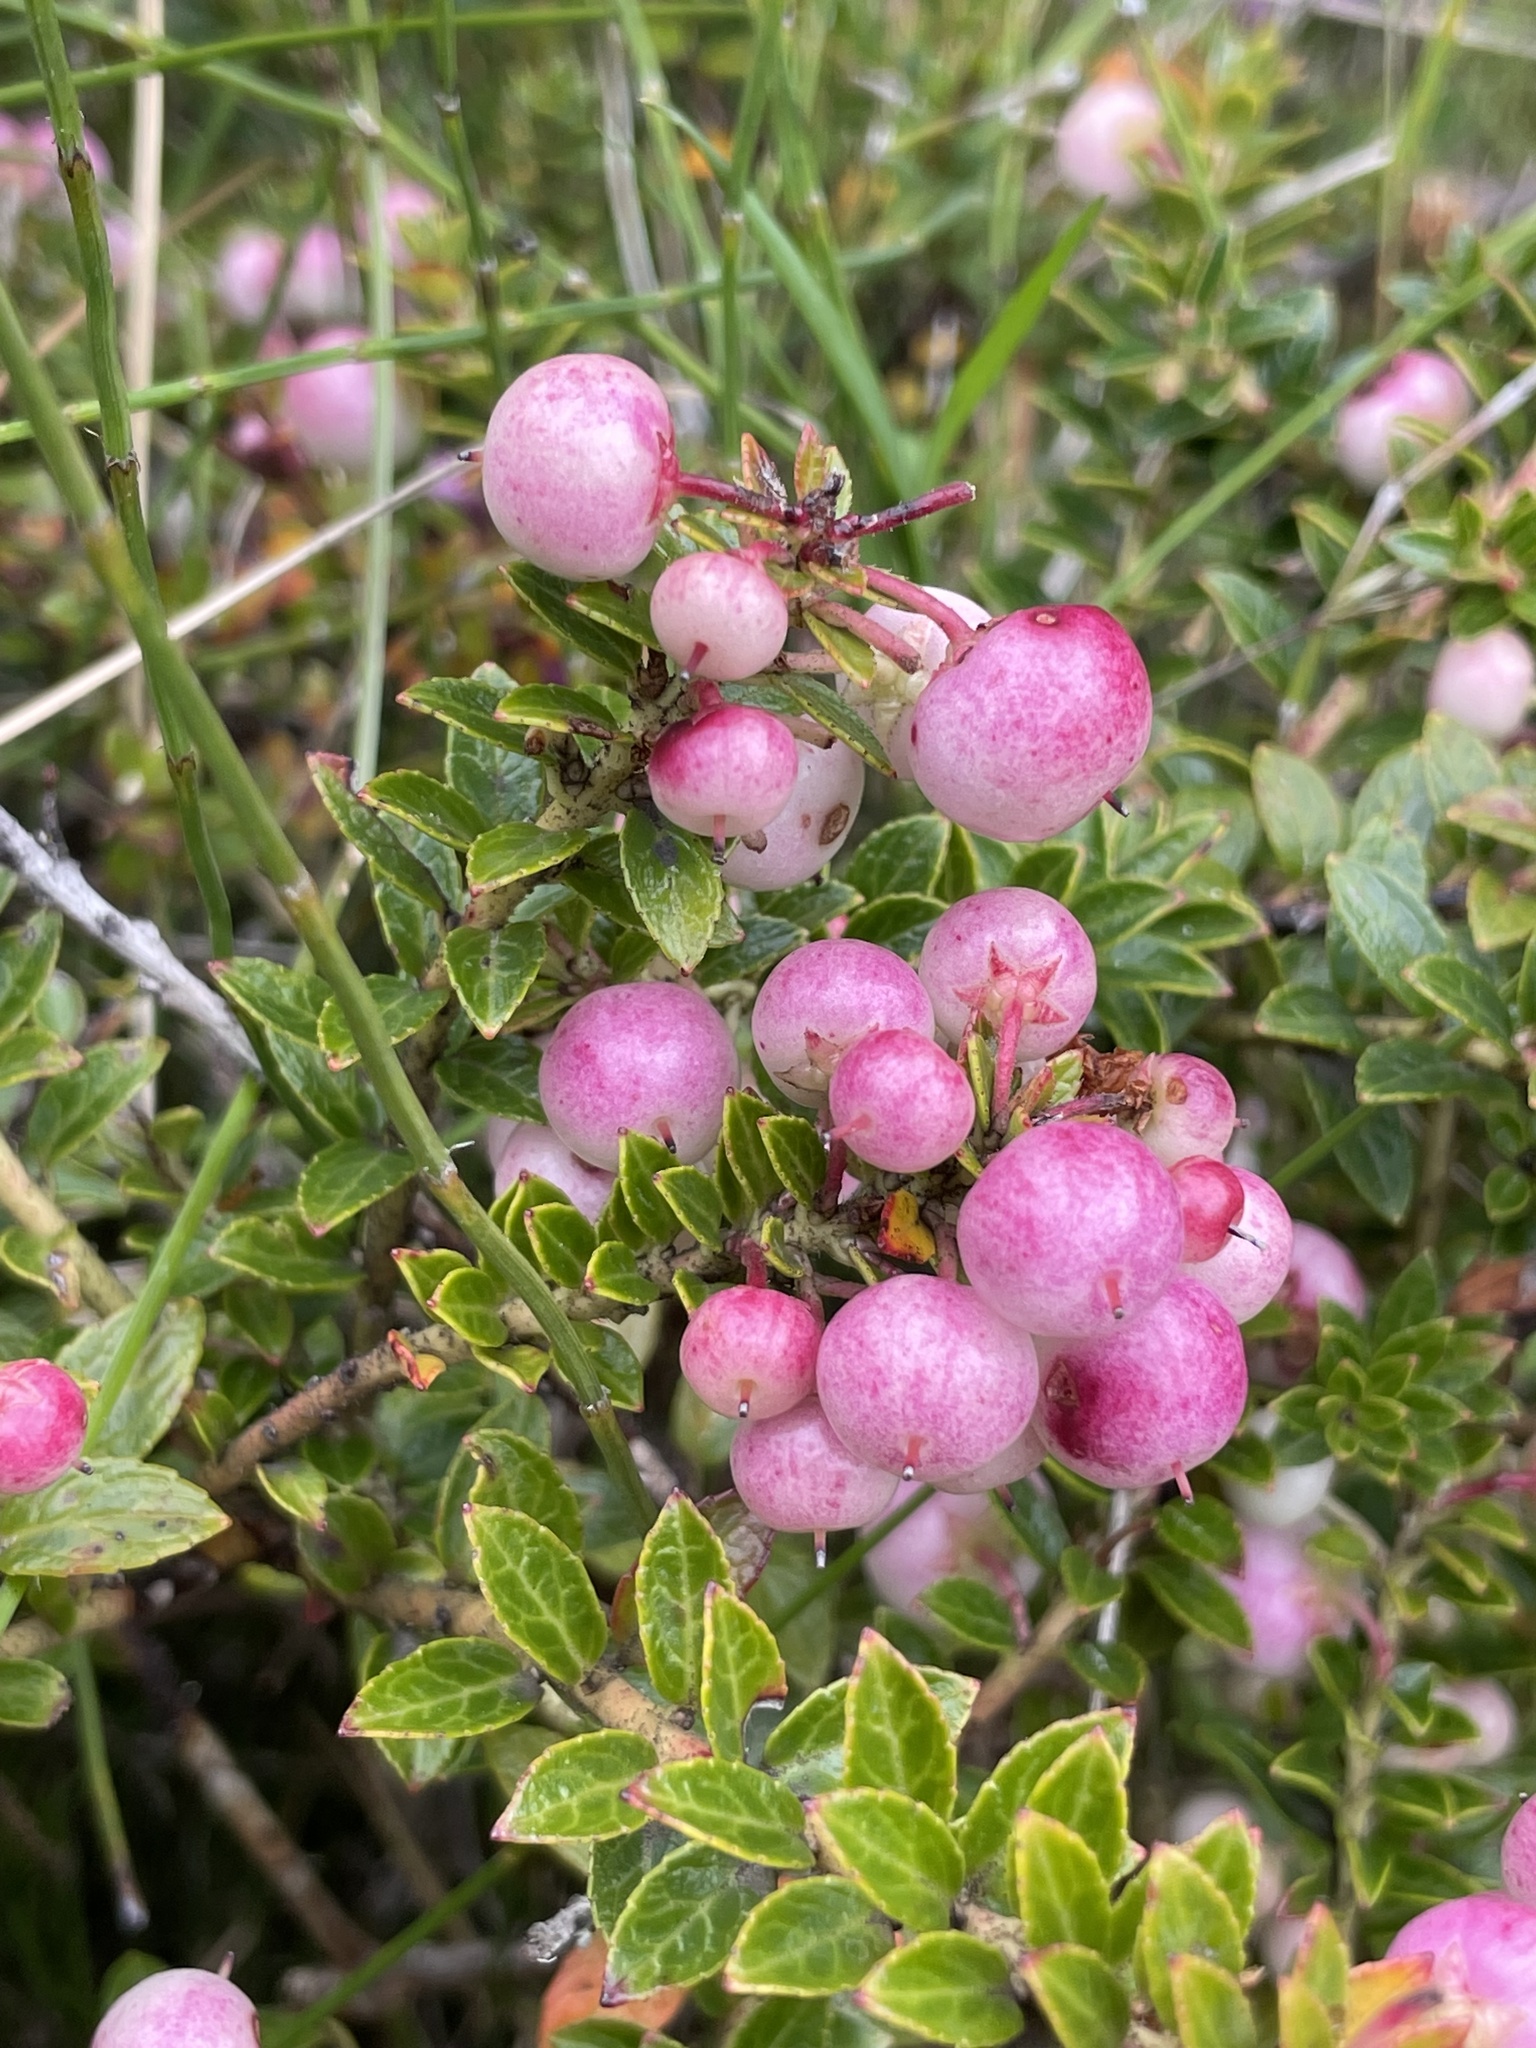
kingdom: Plantae
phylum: Tracheophyta
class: Magnoliopsida
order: Ericales
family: Ericaceae
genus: Gaultheria
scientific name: Gaultheria myrsinoides
